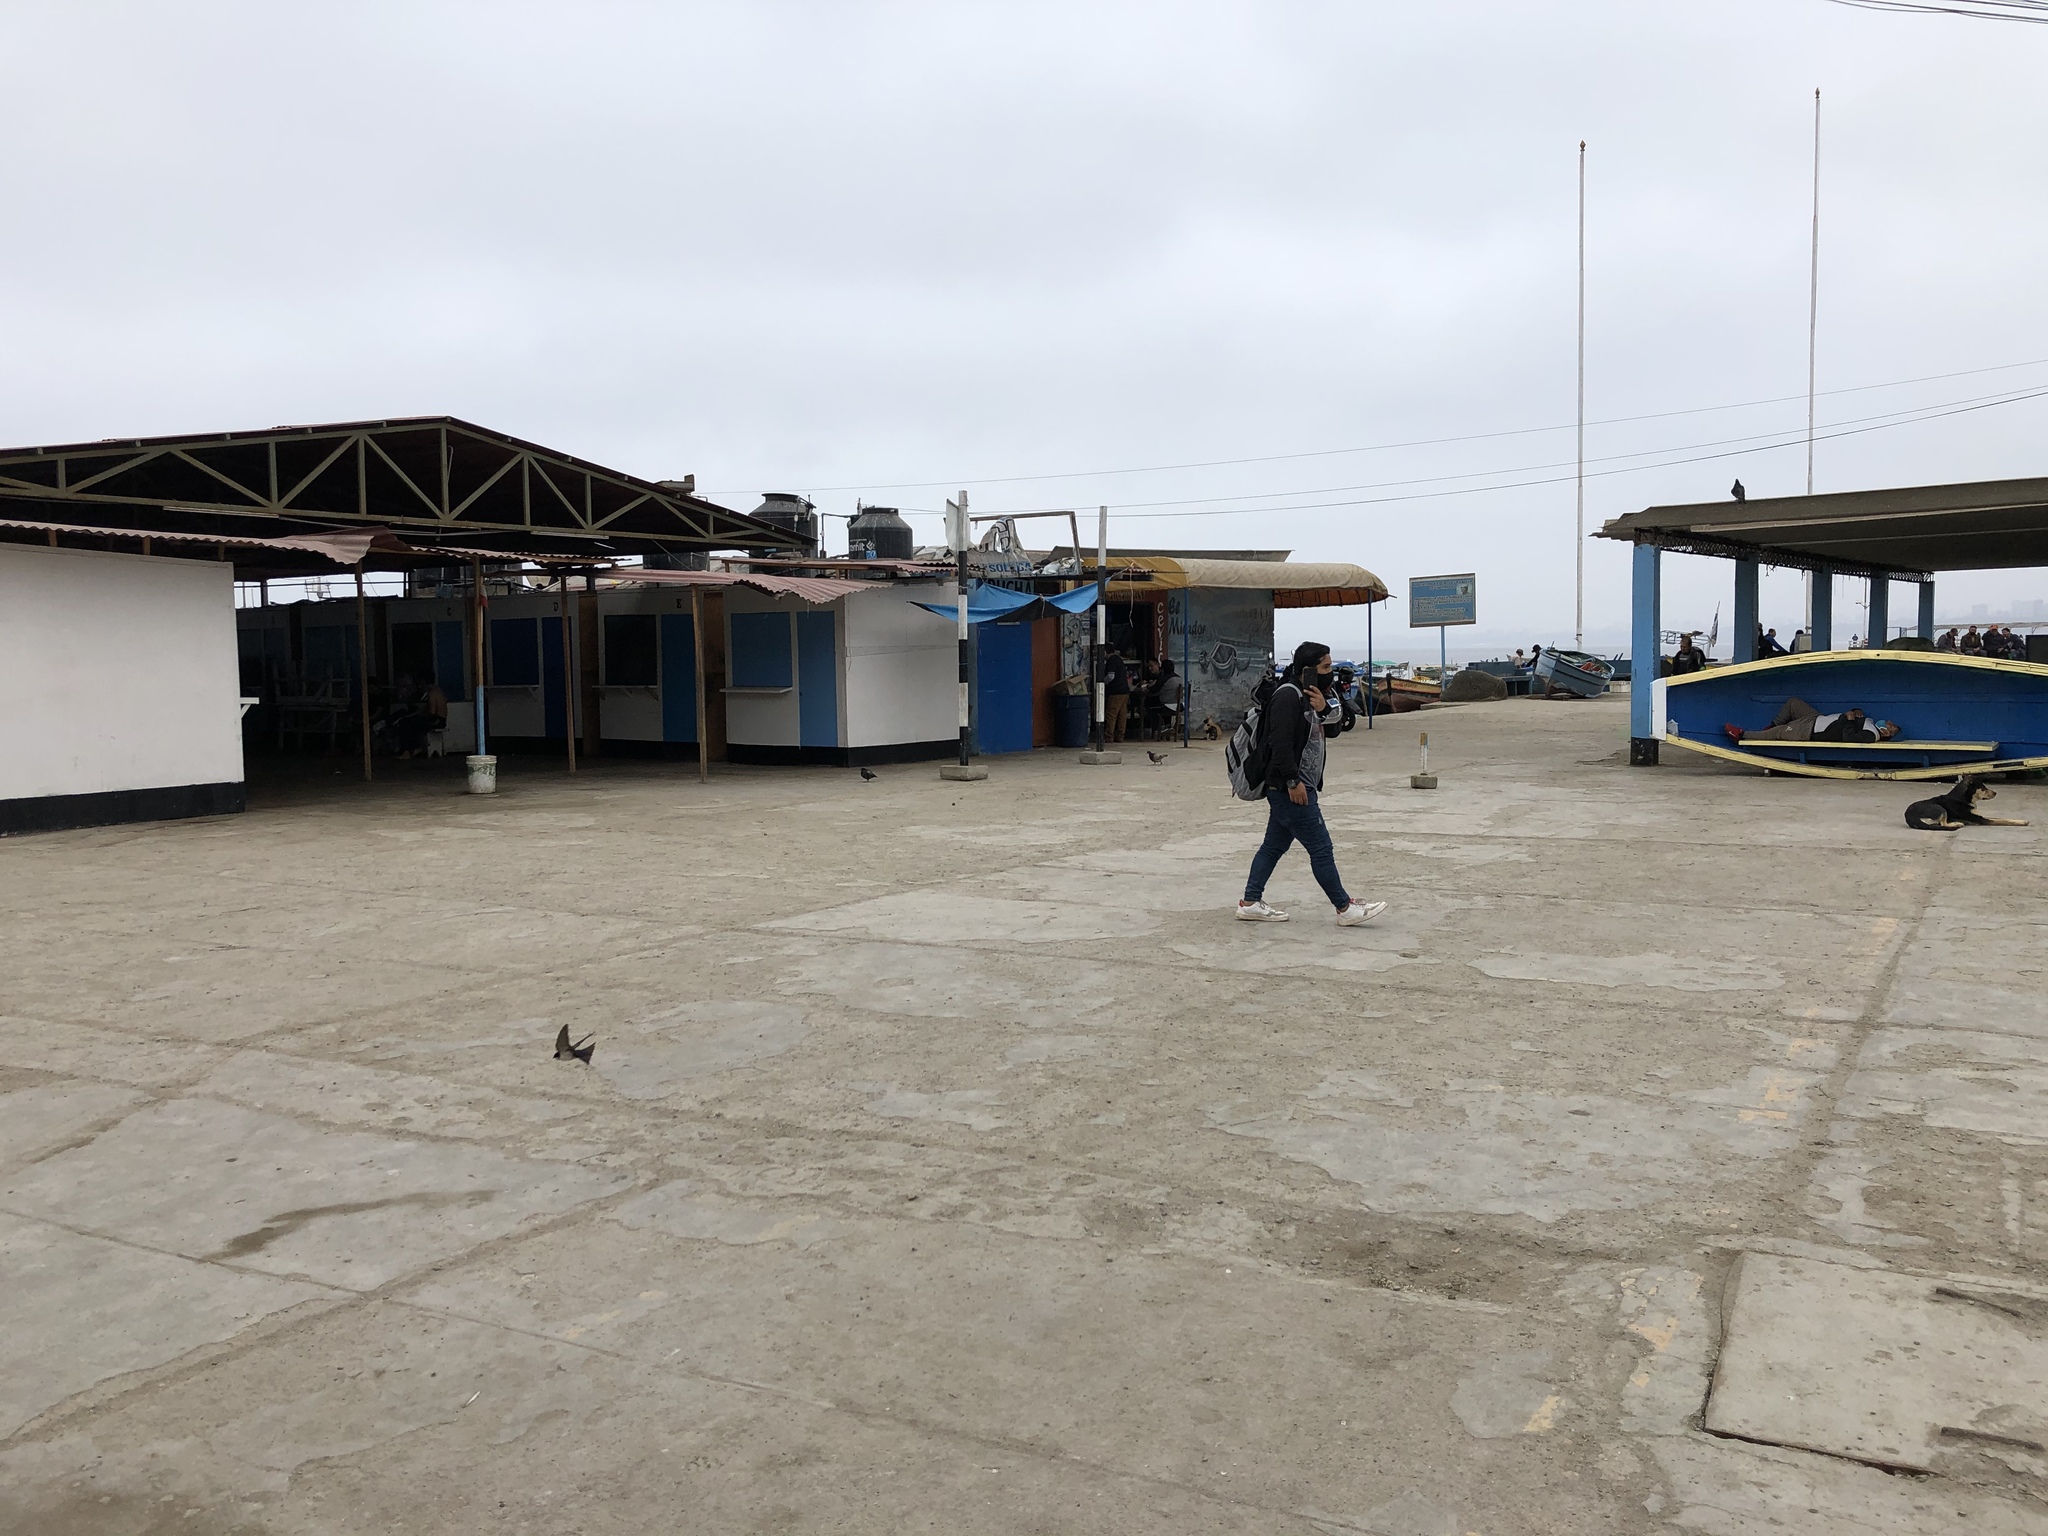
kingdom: Animalia
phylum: Chordata
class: Aves
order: Passeriformes
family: Hirundinidae
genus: Notiochelidon
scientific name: Notiochelidon cyanoleuca
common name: Blue-and-white swallow
